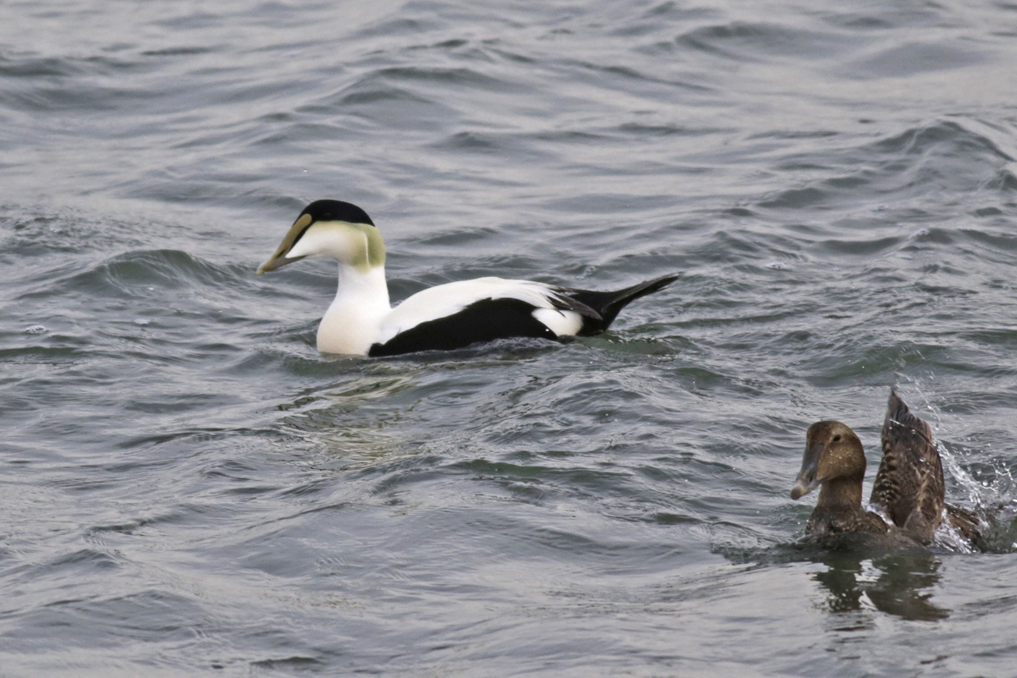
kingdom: Animalia
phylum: Chordata
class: Aves
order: Anseriformes
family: Anatidae
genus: Somateria
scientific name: Somateria mollissima
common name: Common eider
